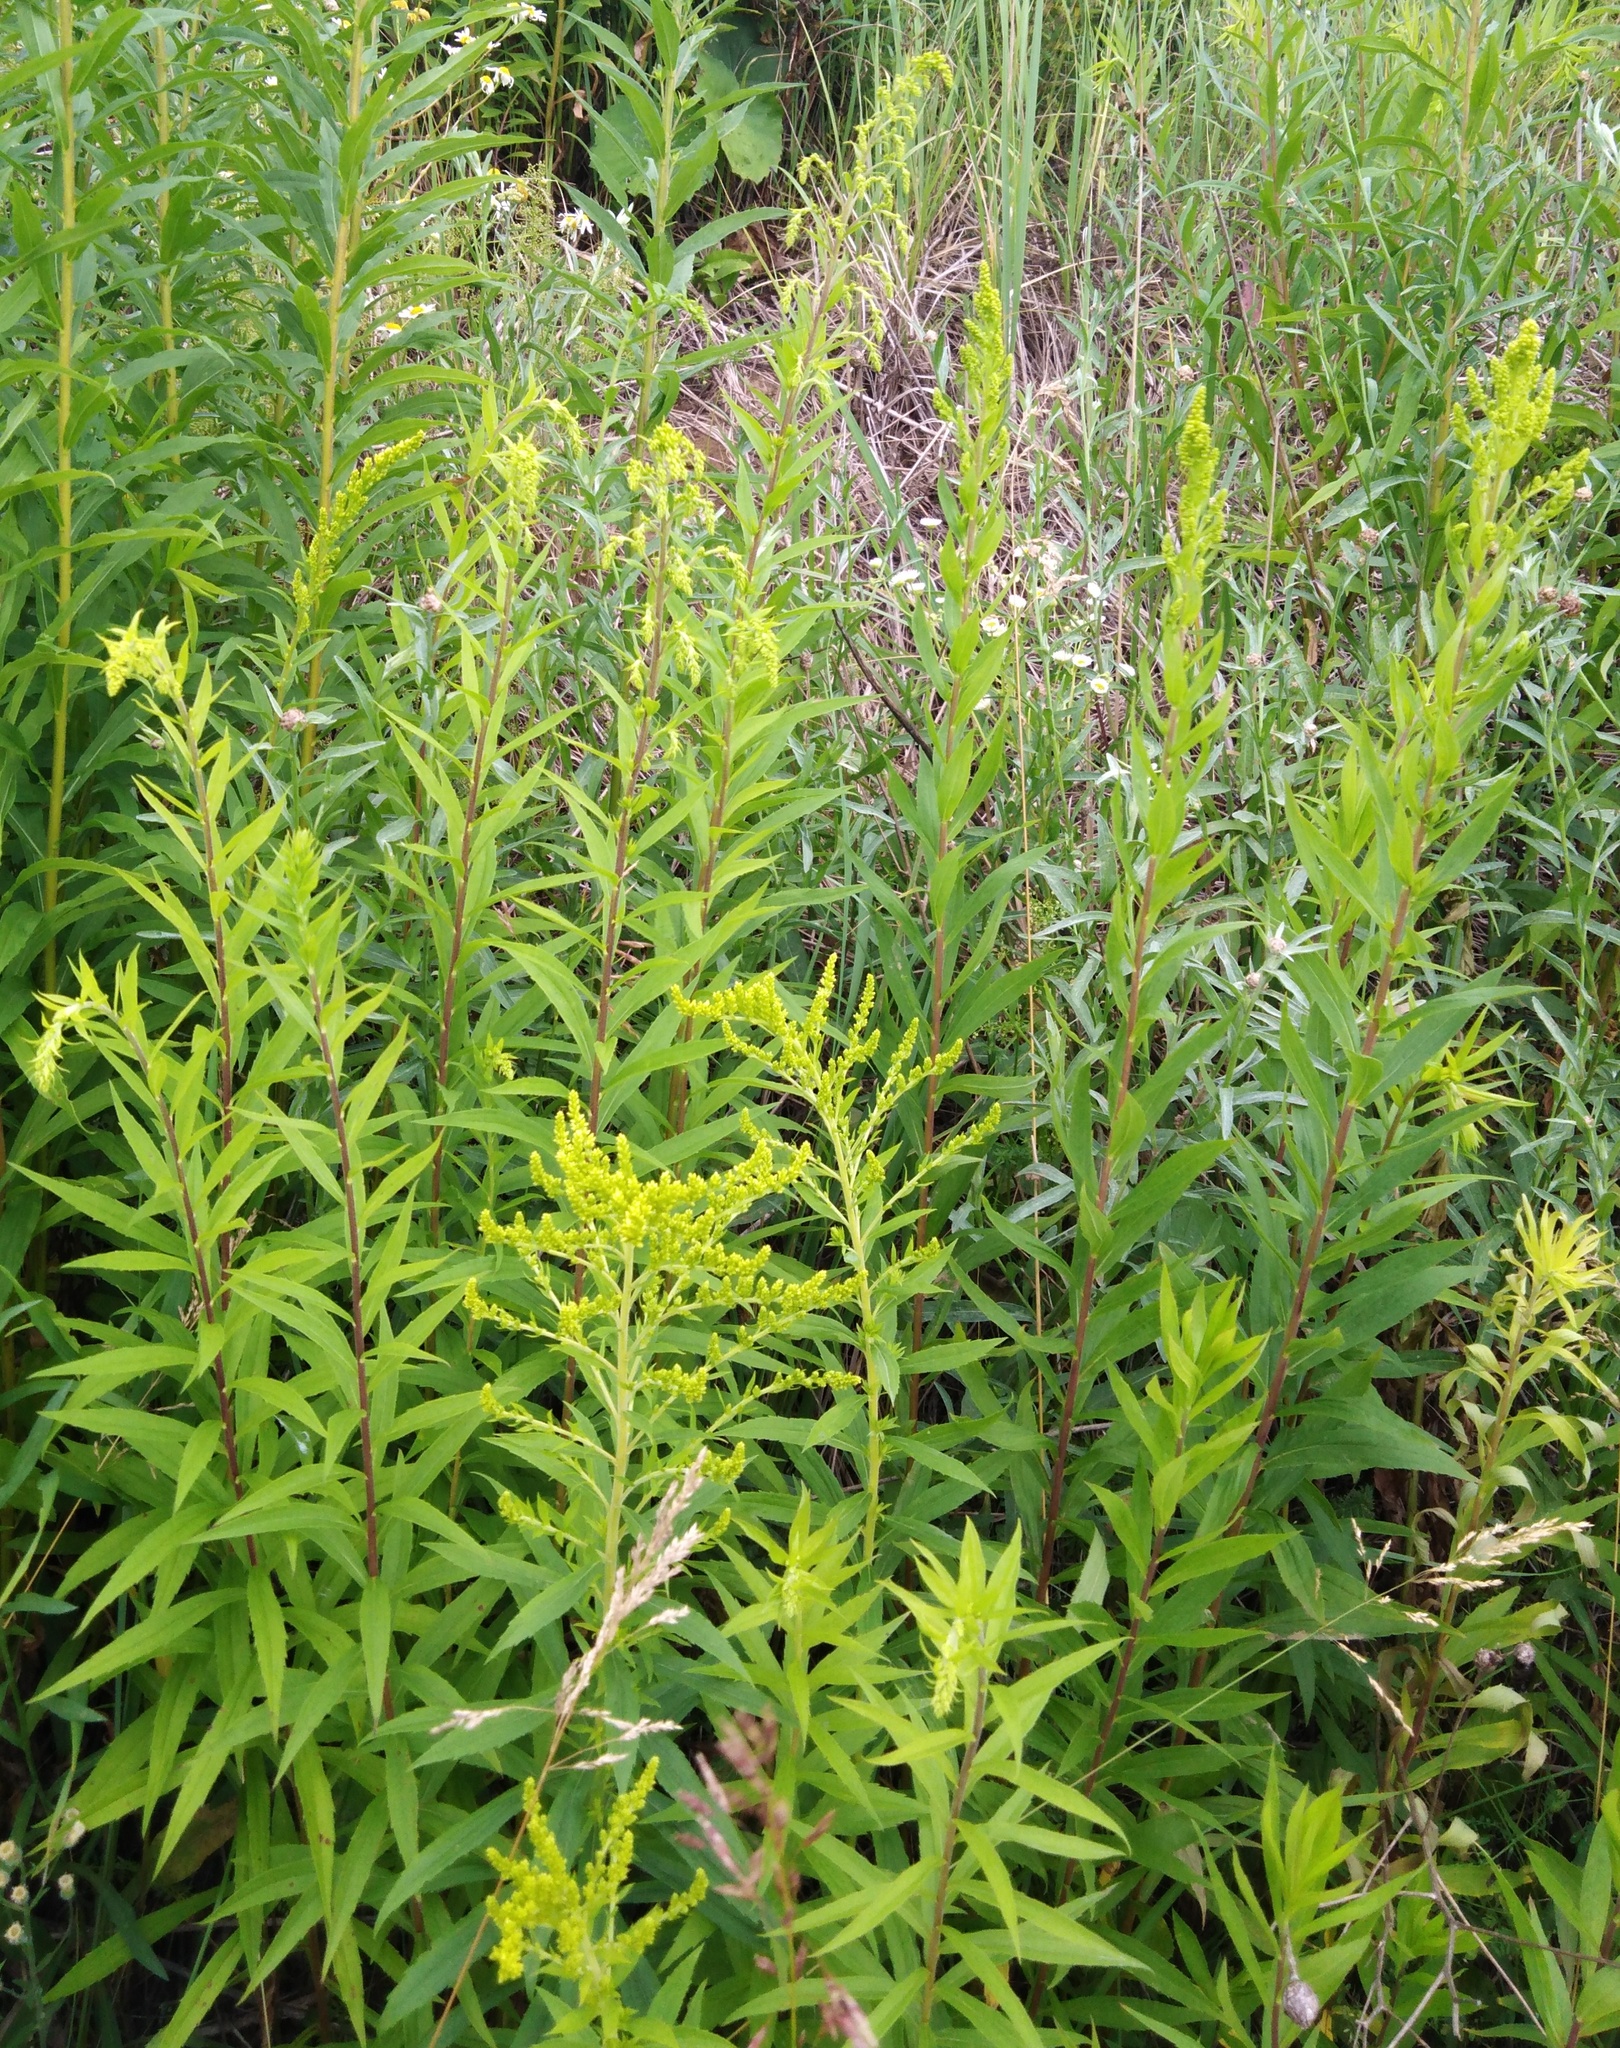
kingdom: Plantae
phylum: Tracheophyta
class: Magnoliopsida
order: Asterales
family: Asteraceae
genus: Solidago
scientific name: Solidago canadensis
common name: Canada goldenrod
